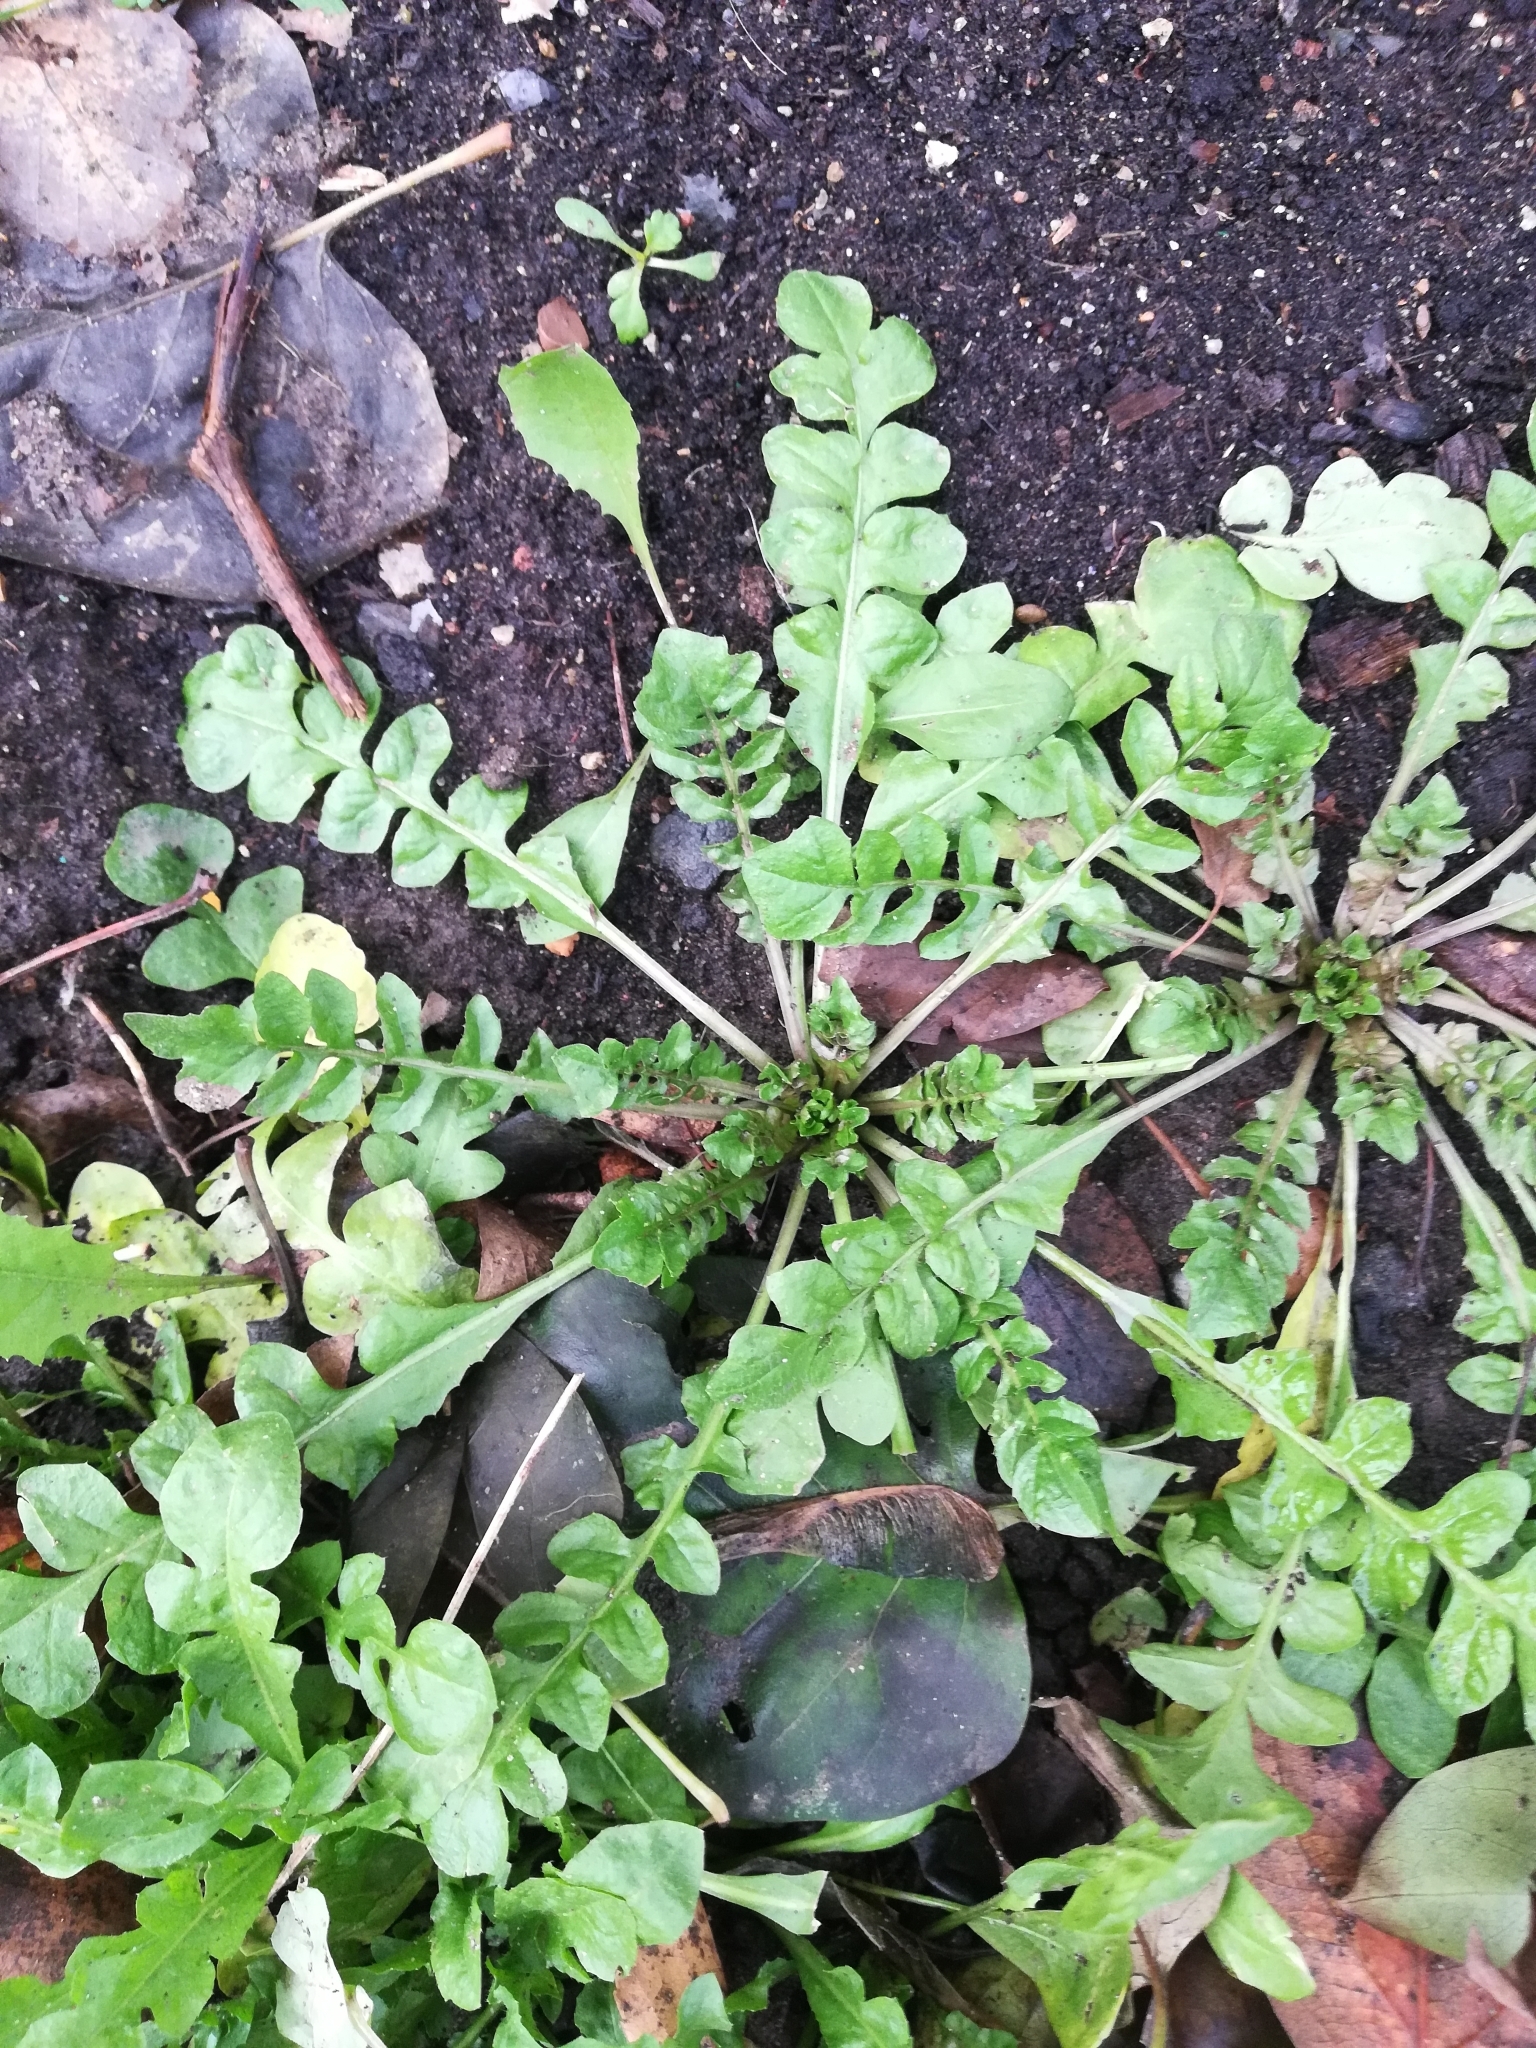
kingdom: Plantae
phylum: Tracheophyta
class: Magnoliopsida
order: Brassicales
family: Brassicaceae
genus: Capsella
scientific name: Capsella bursa-pastoris
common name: Shepherd's purse
